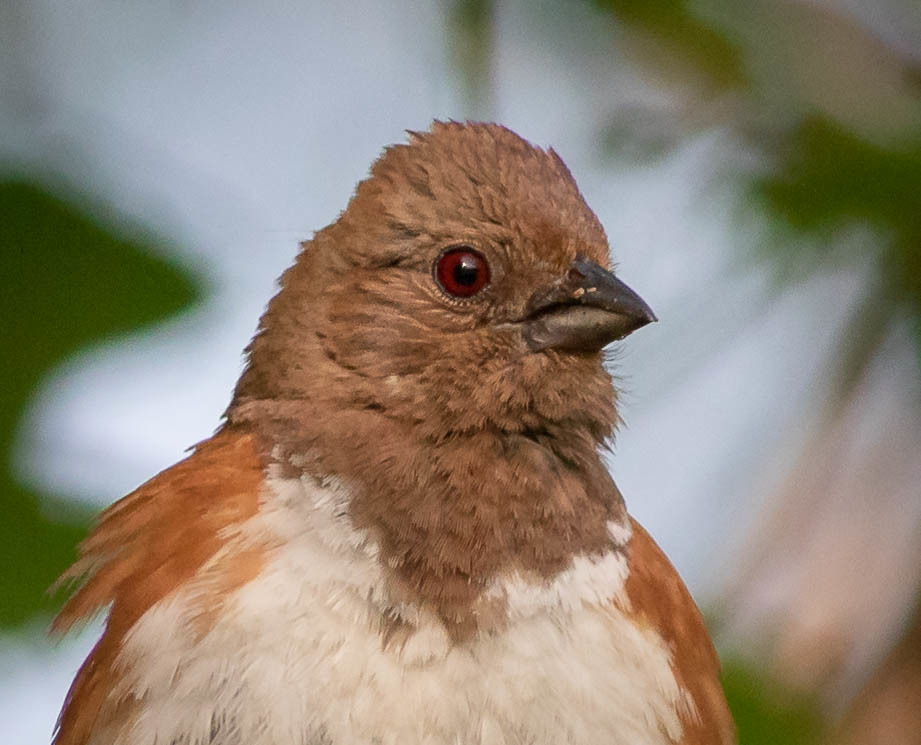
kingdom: Animalia
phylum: Chordata
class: Aves
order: Passeriformes
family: Passerellidae
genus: Pipilo
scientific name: Pipilo erythrophthalmus
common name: Eastern towhee
